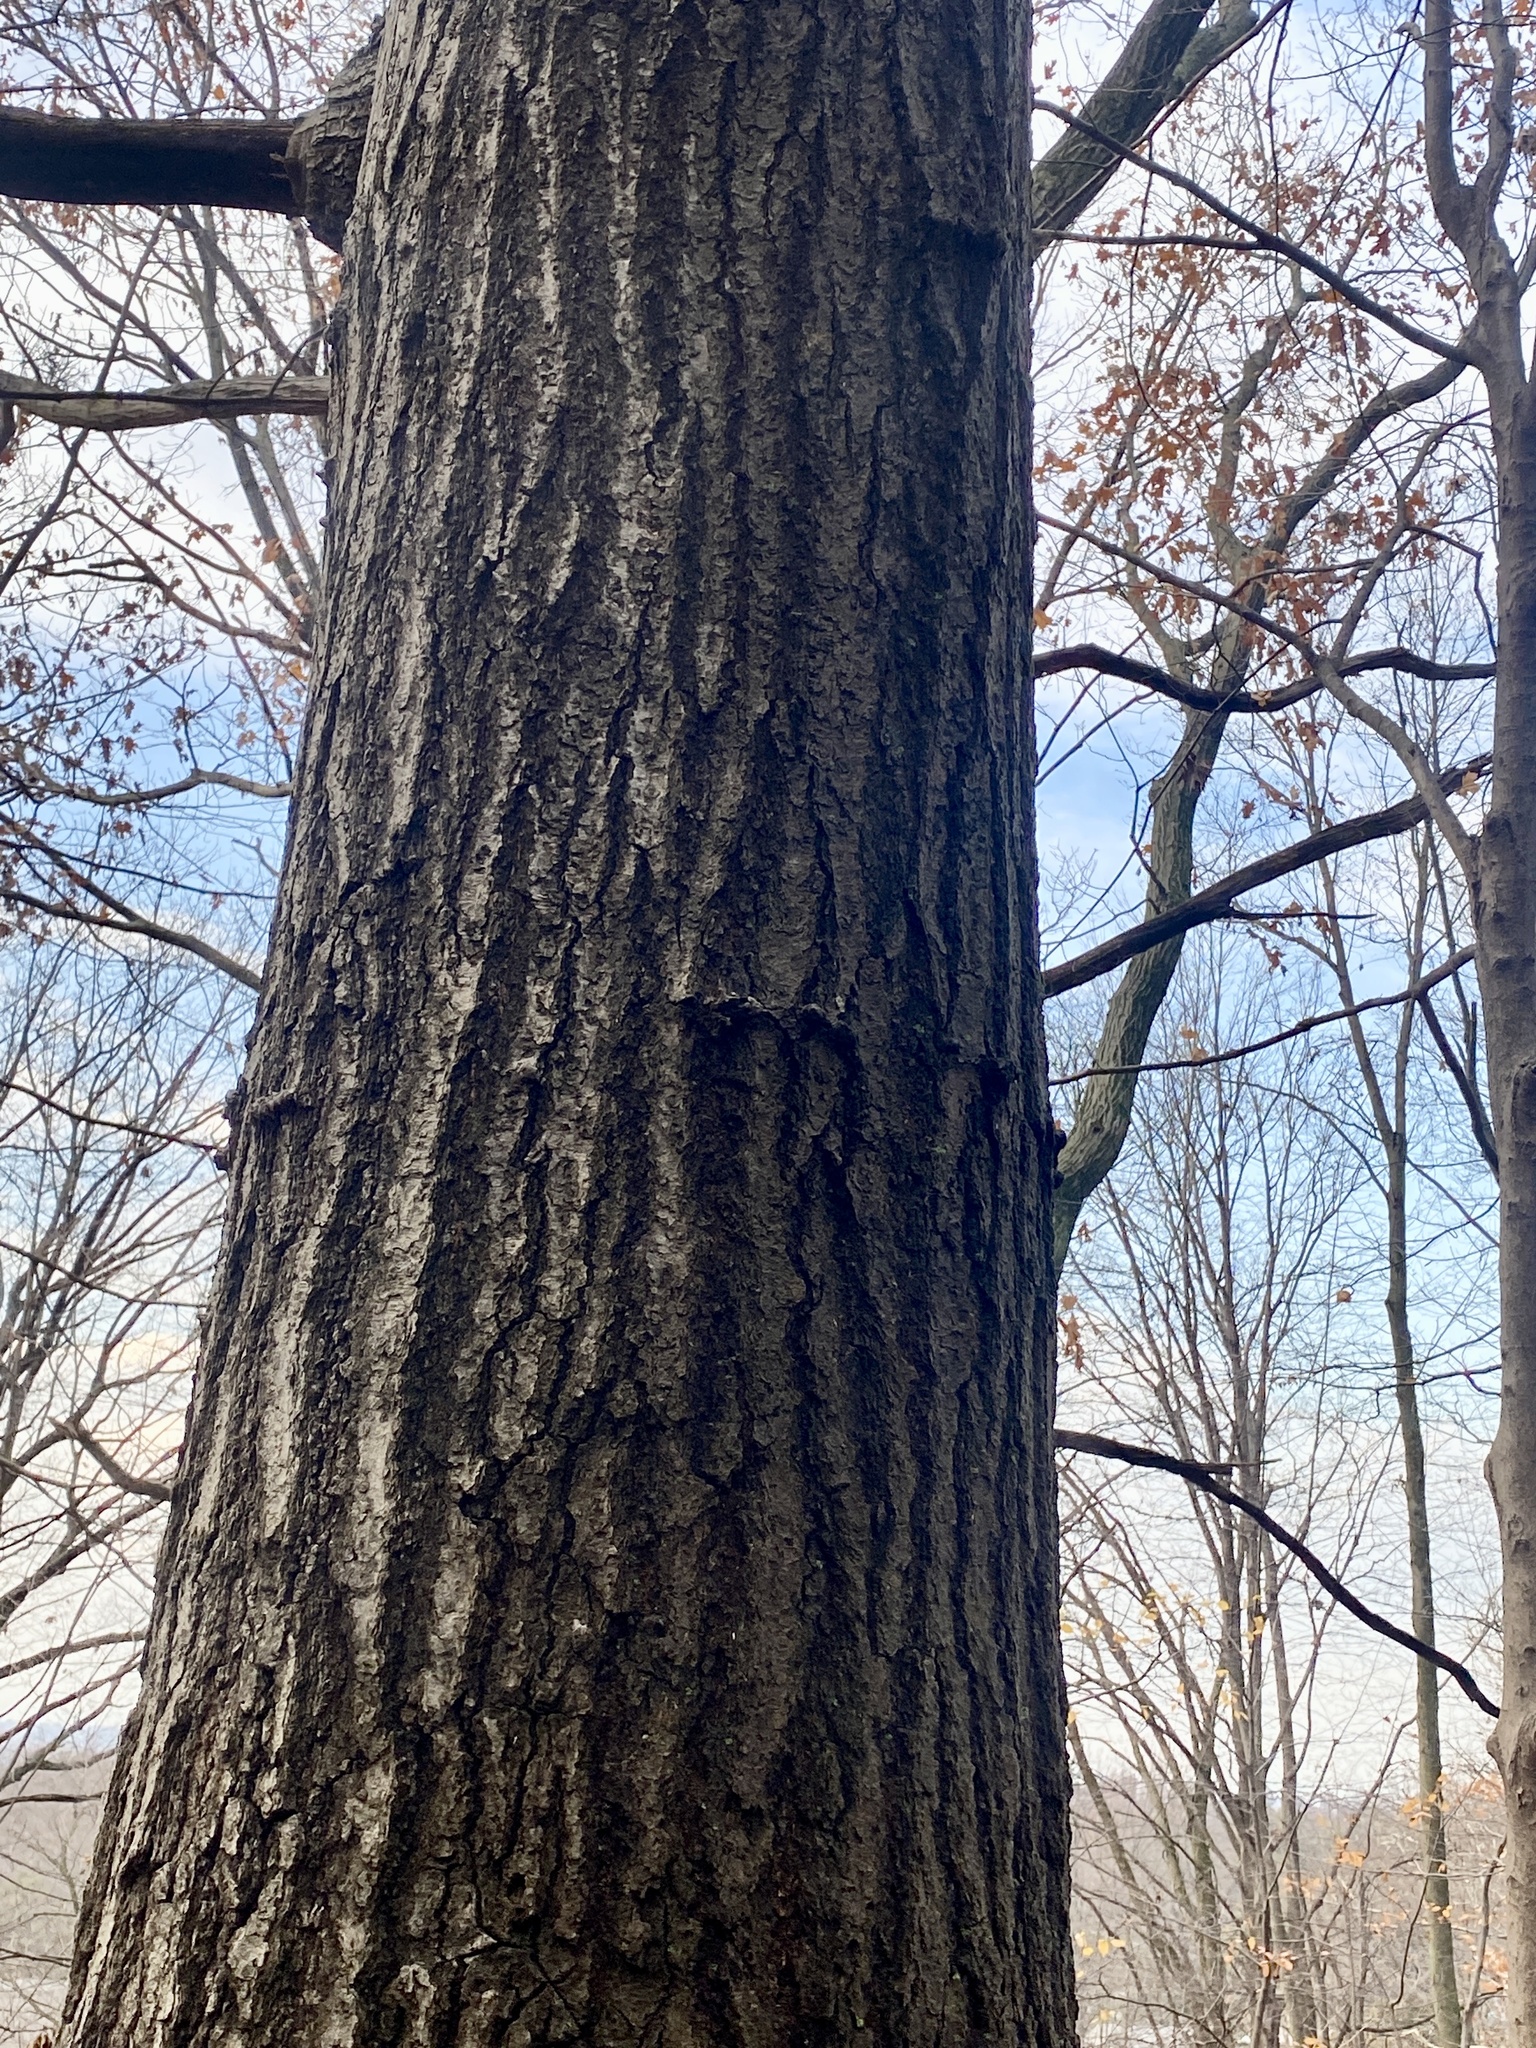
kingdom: Plantae
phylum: Tracheophyta
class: Magnoliopsida
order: Fagales
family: Fagaceae
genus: Quercus
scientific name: Quercus rubra
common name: Red oak
